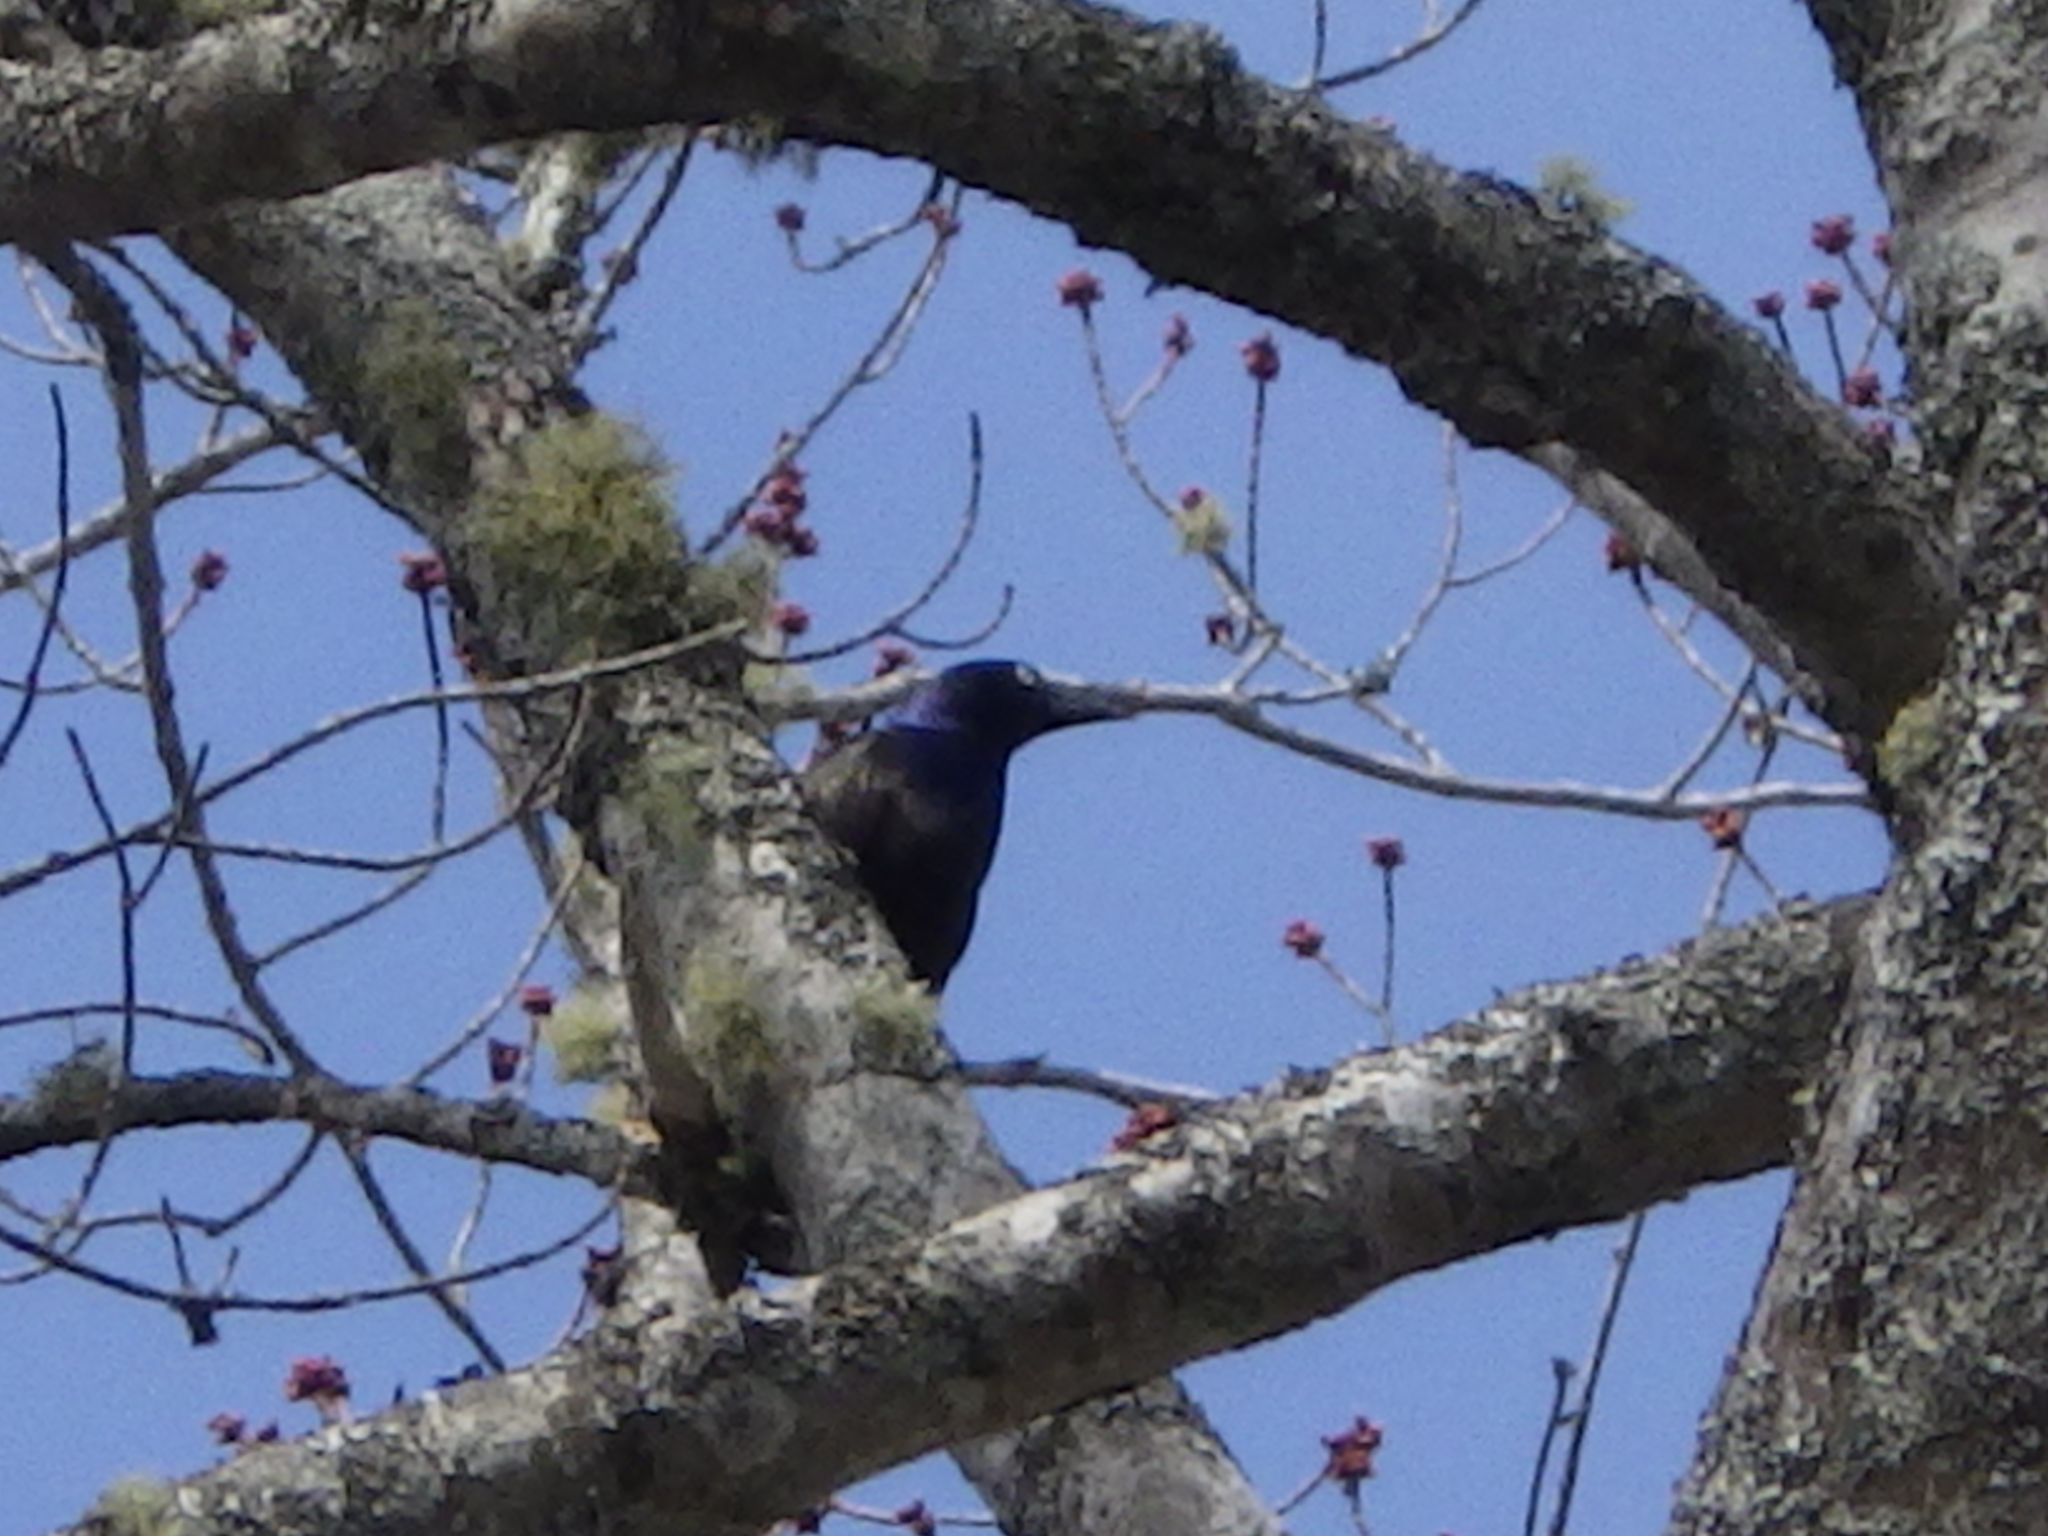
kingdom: Animalia
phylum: Chordata
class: Aves
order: Passeriformes
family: Icteridae
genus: Quiscalus
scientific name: Quiscalus quiscula
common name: Common grackle
